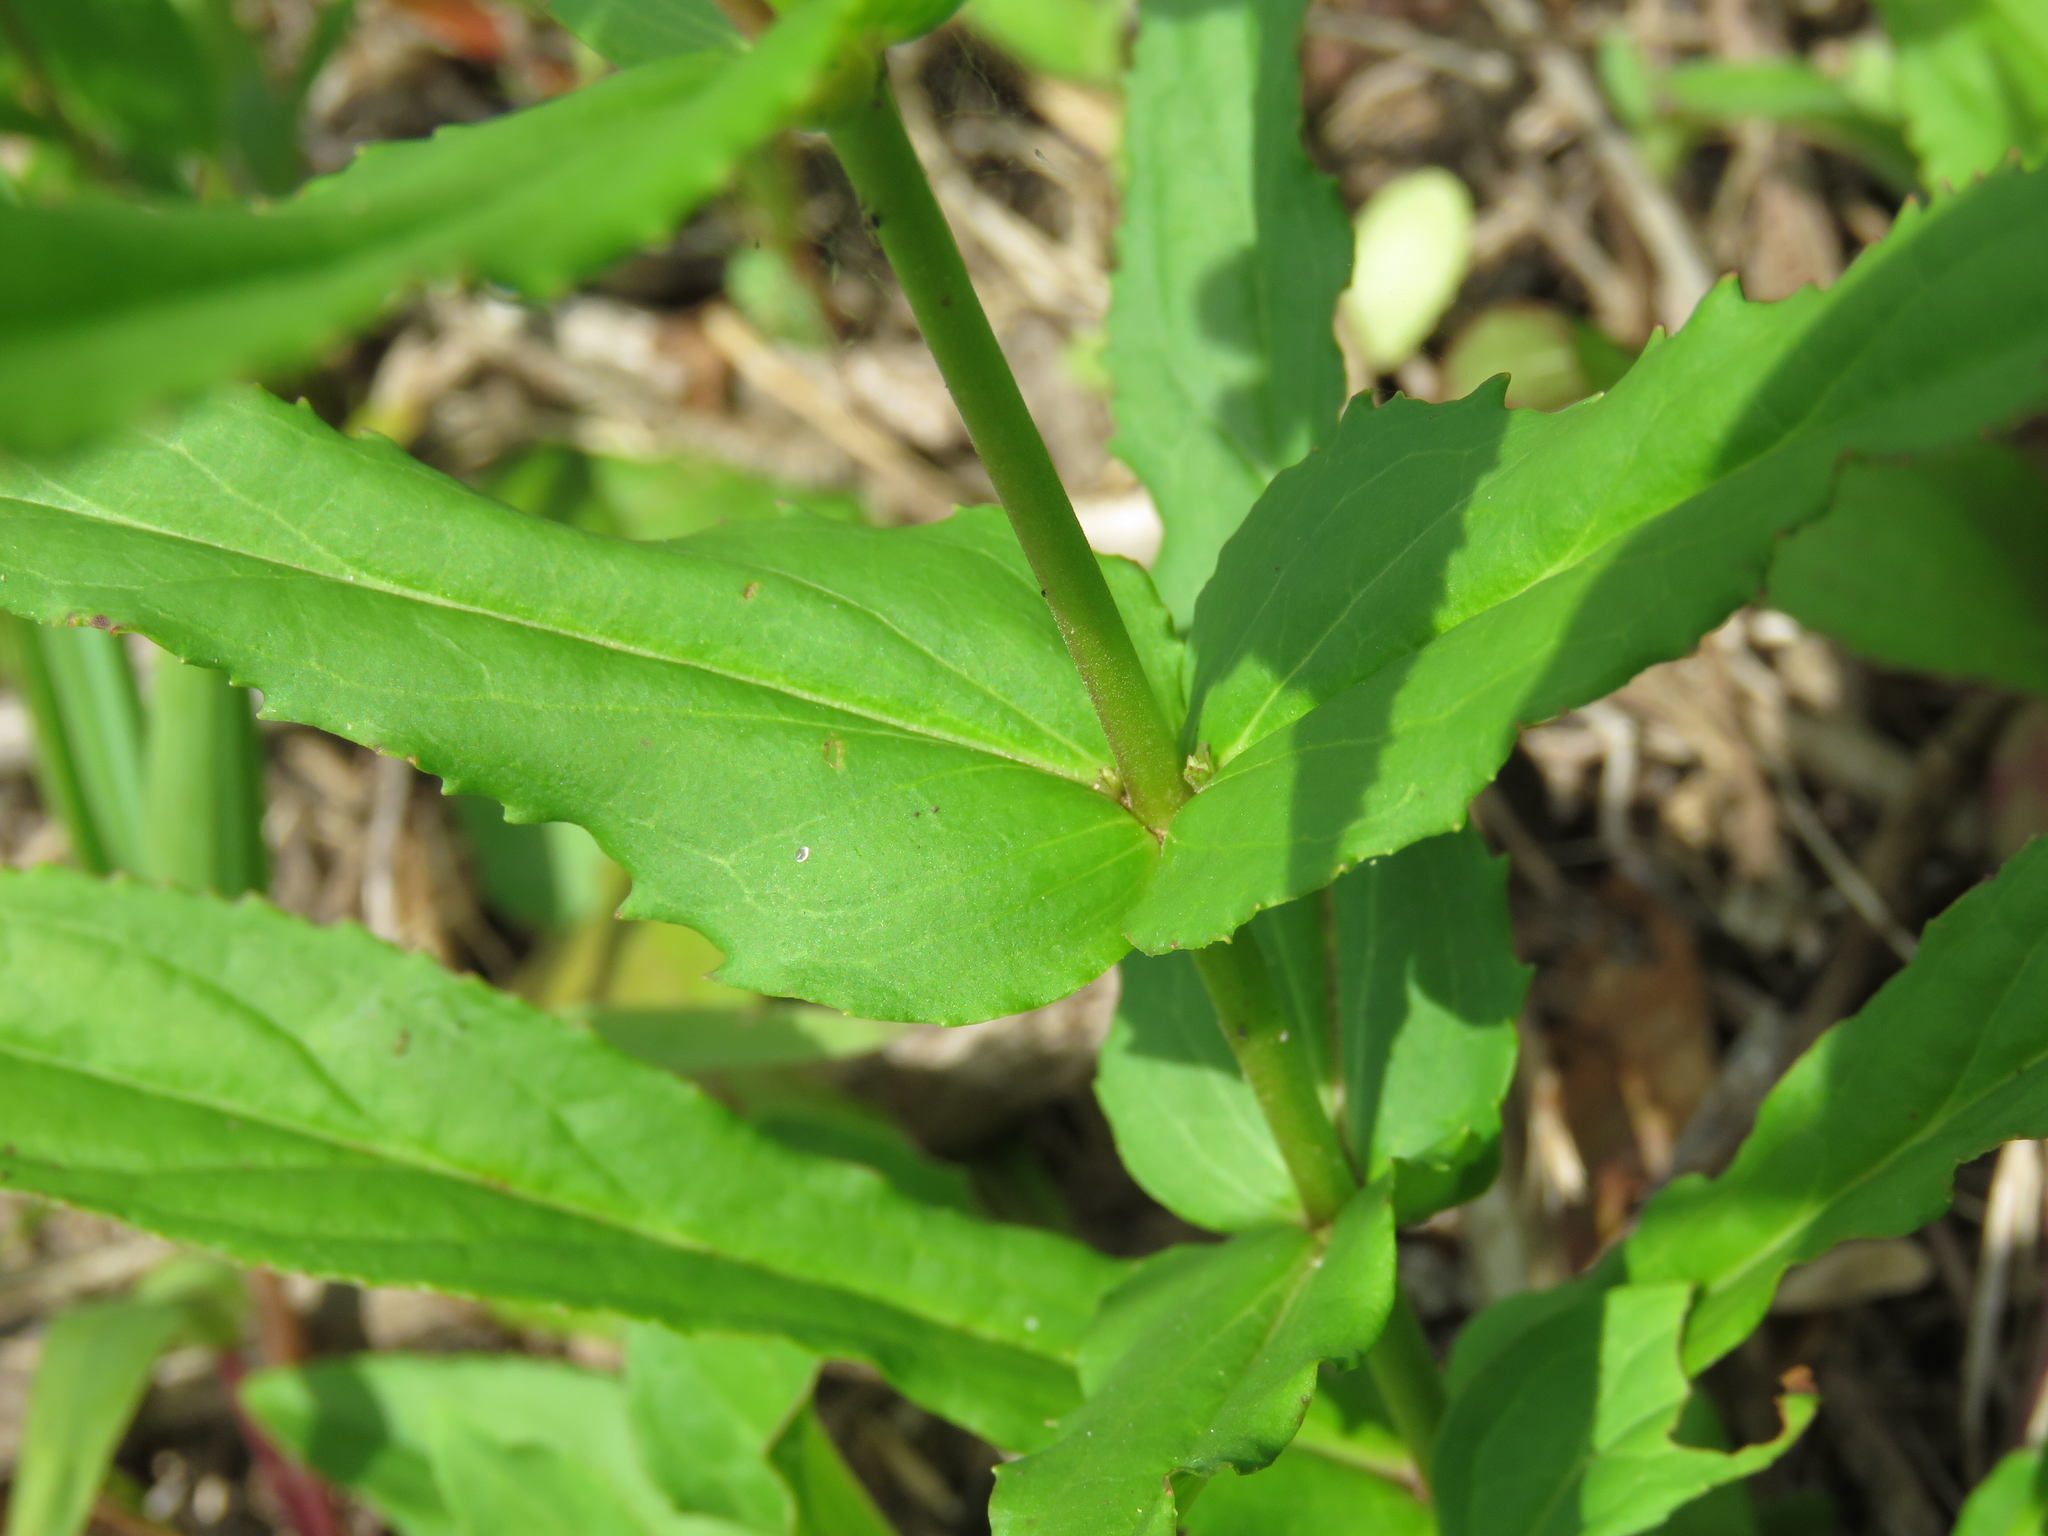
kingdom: Plantae
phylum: Tracheophyta
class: Magnoliopsida
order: Lamiales
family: Plantaginaceae
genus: Penstemon
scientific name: Penstemon tenuis
